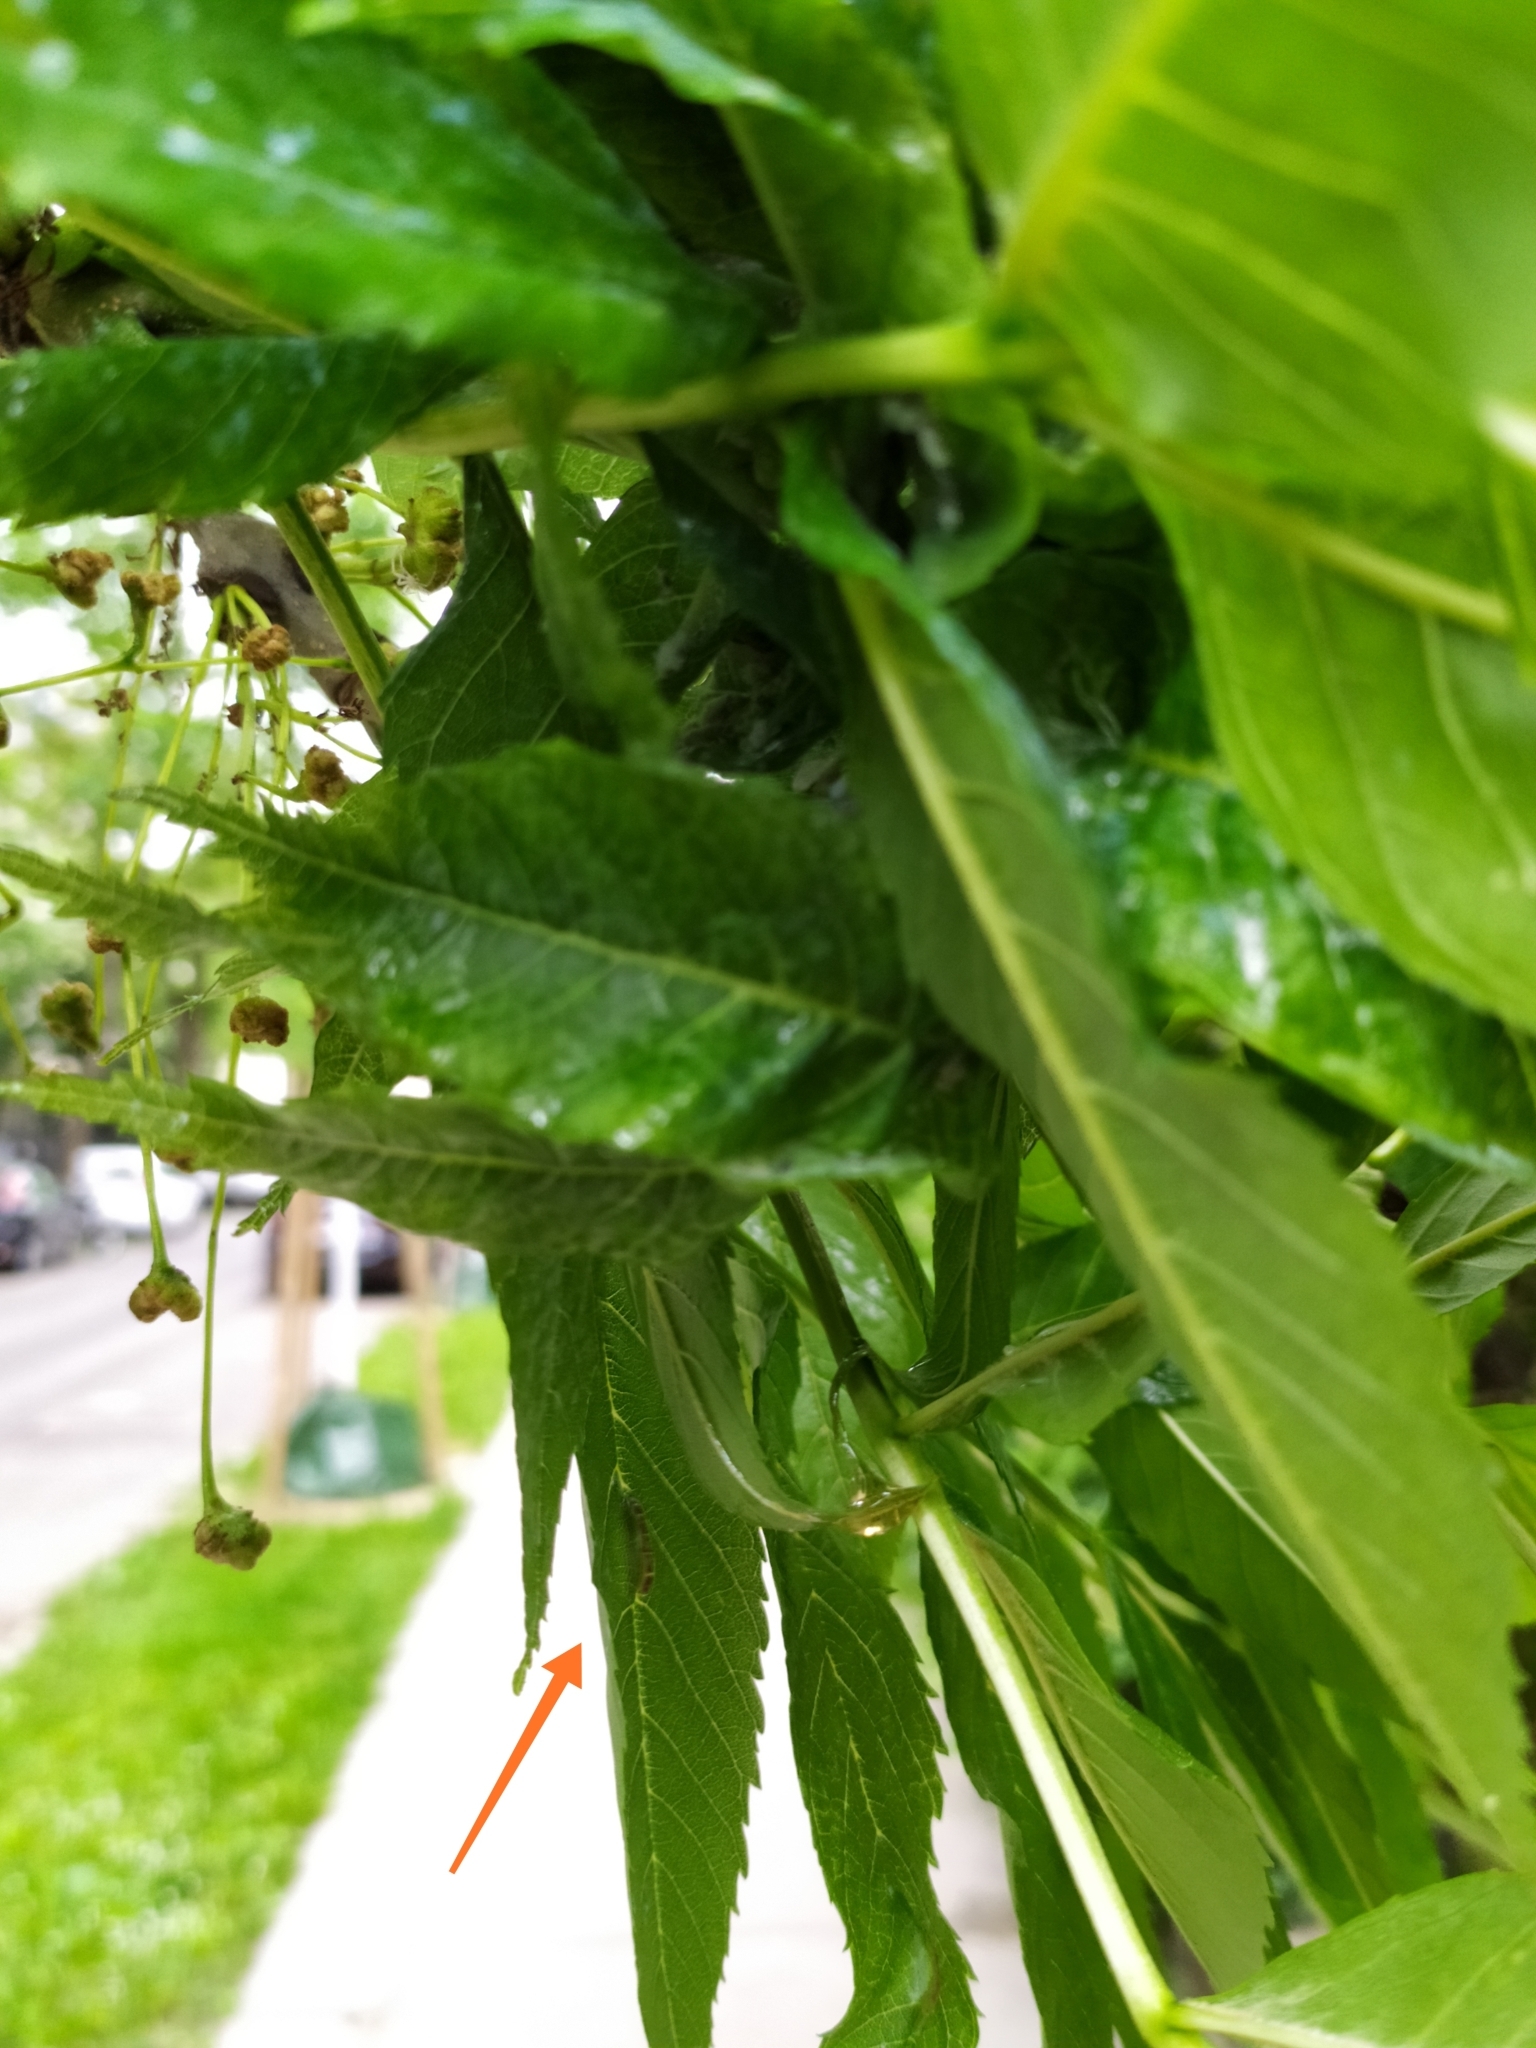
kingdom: Animalia
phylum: Arthropoda
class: Insecta
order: Diptera
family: Cecidomyiidae
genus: Dasineura
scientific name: Dasineura fraxini
